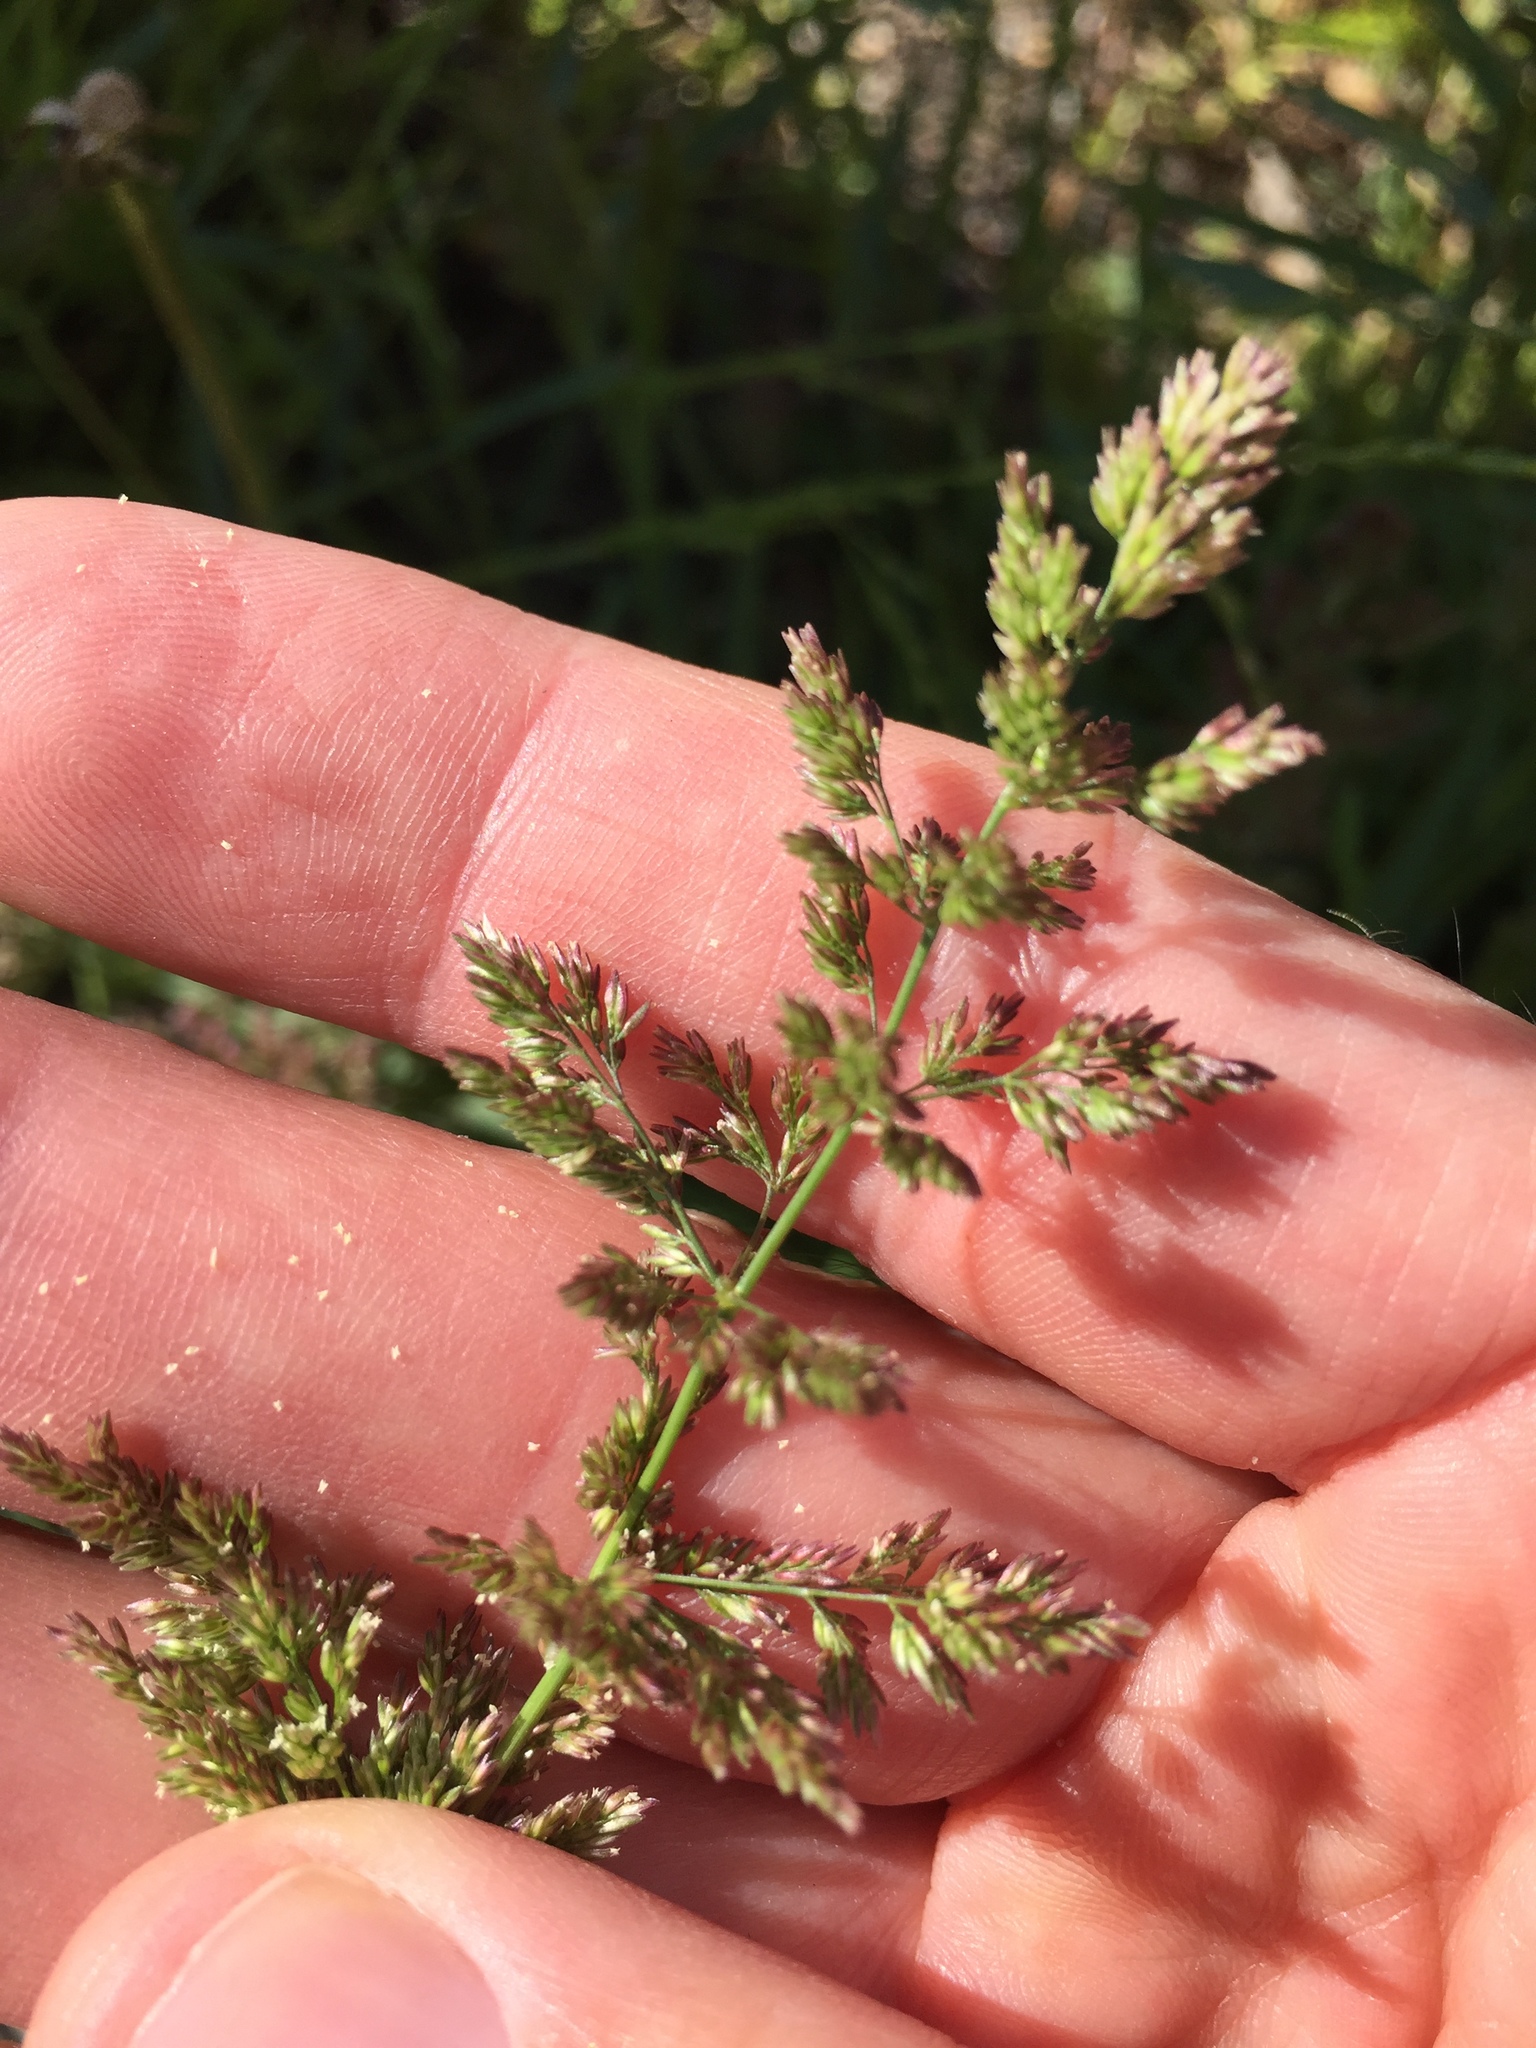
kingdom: Plantae
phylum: Tracheophyta
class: Liliopsida
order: Poales
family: Poaceae
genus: Polypogon
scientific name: Polypogon viridis
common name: Water bent
